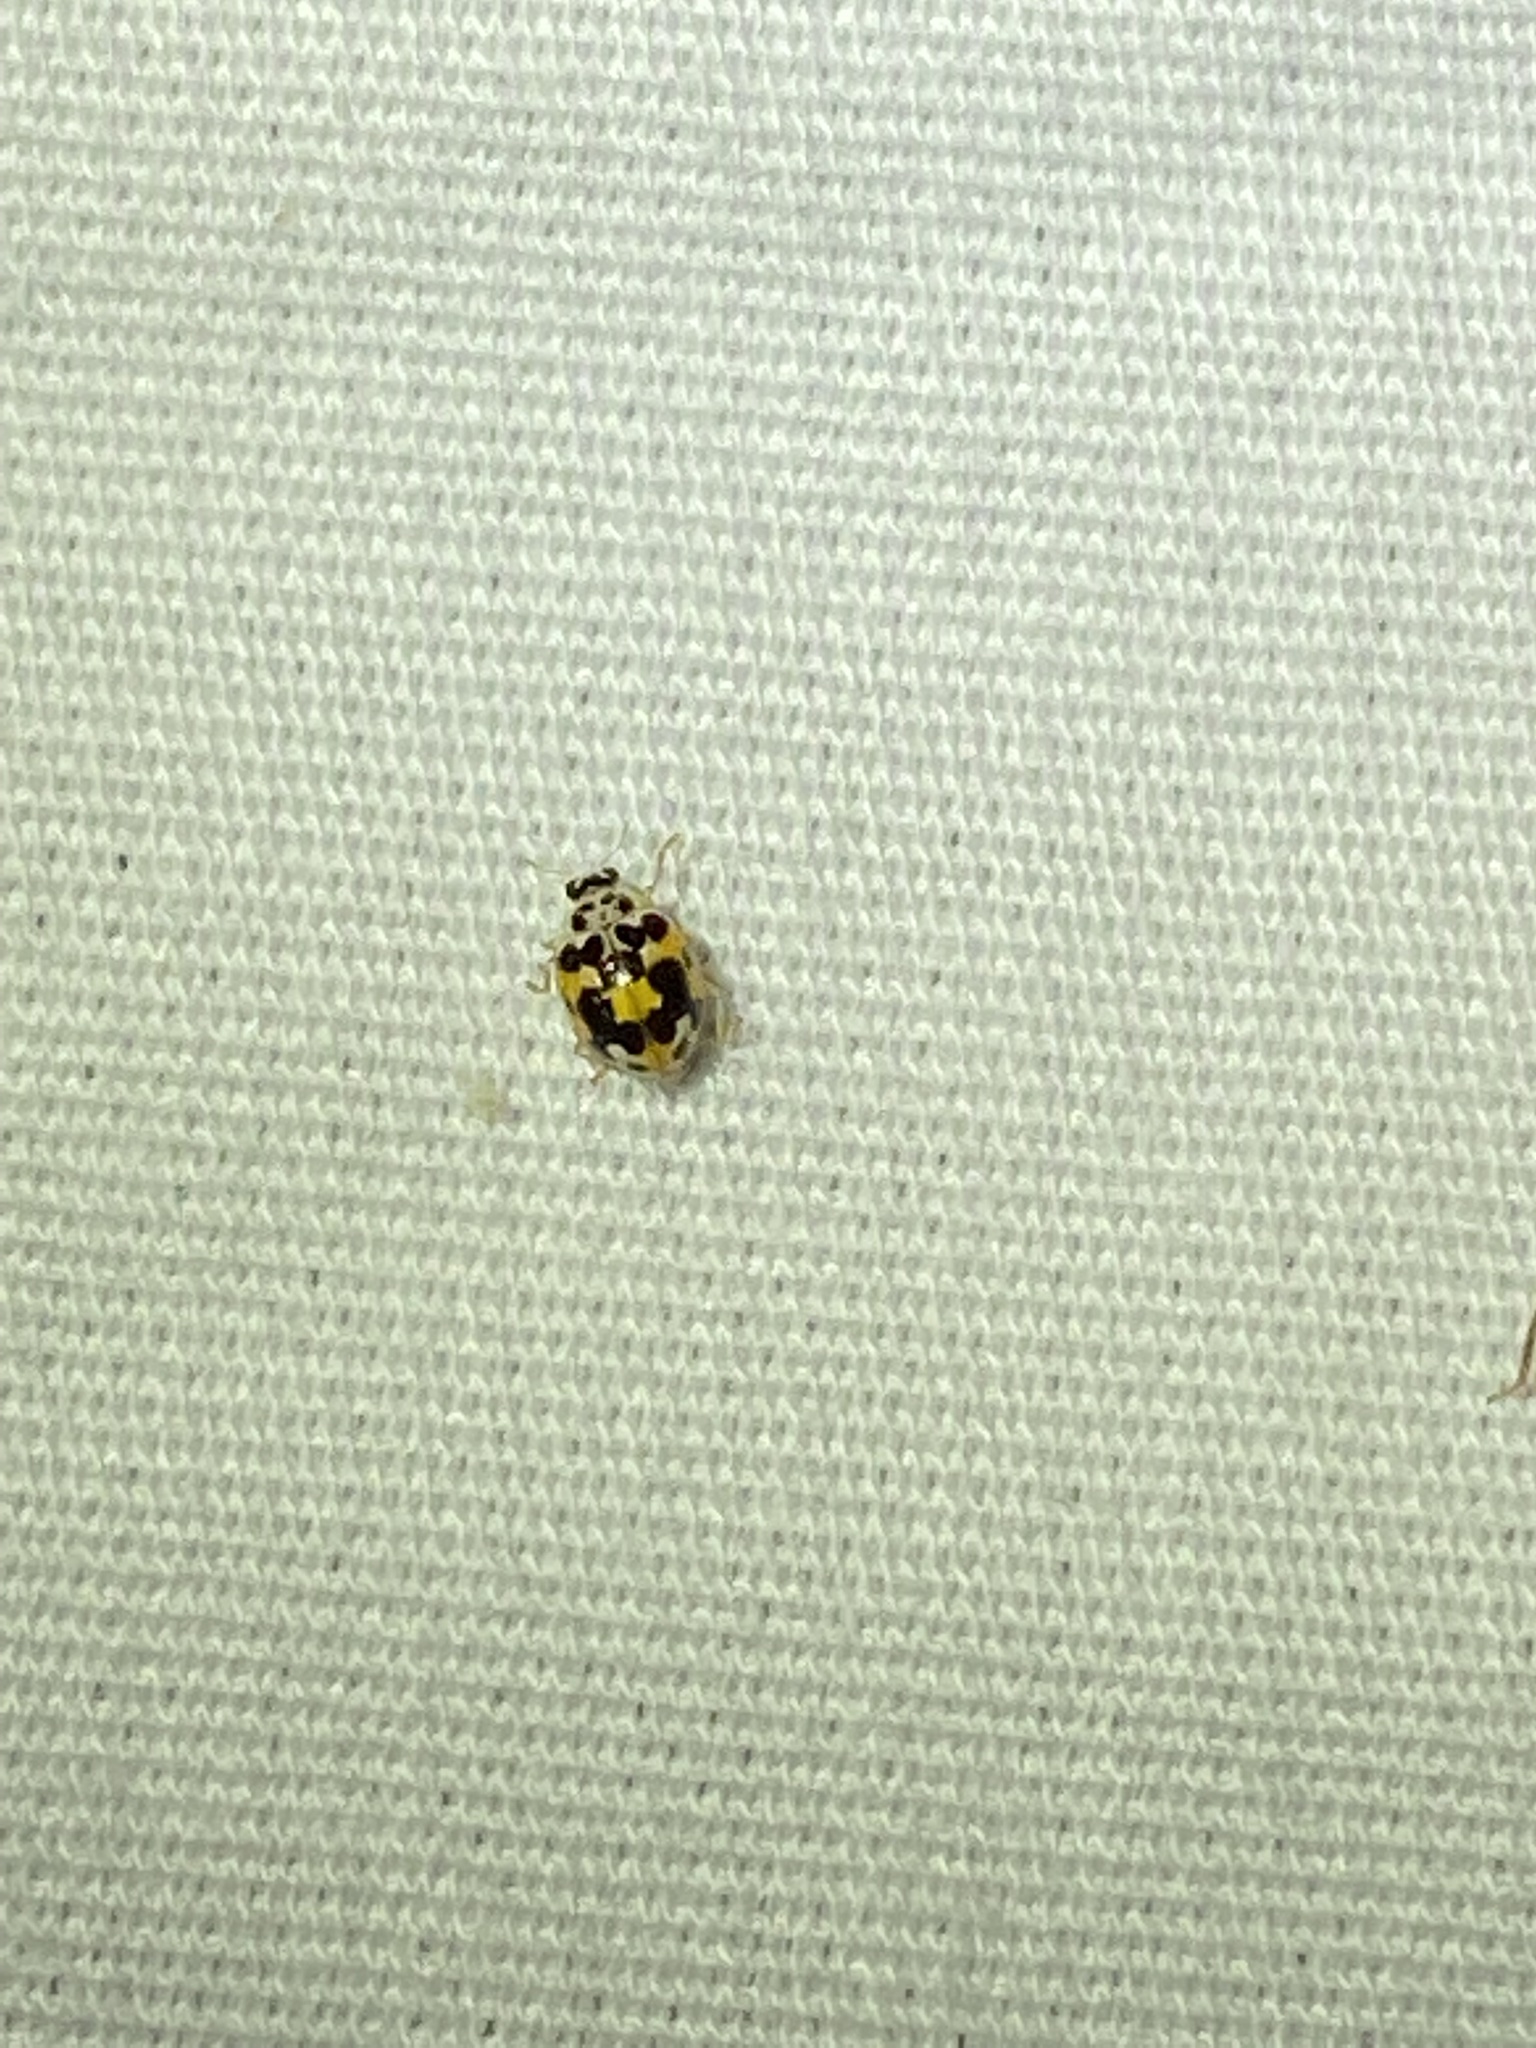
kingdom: Animalia
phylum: Arthropoda
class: Insecta
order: Coleoptera
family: Coccinellidae
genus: Psyllobora
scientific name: Psyllobora vigintimaculata
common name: Ladybird beetle
